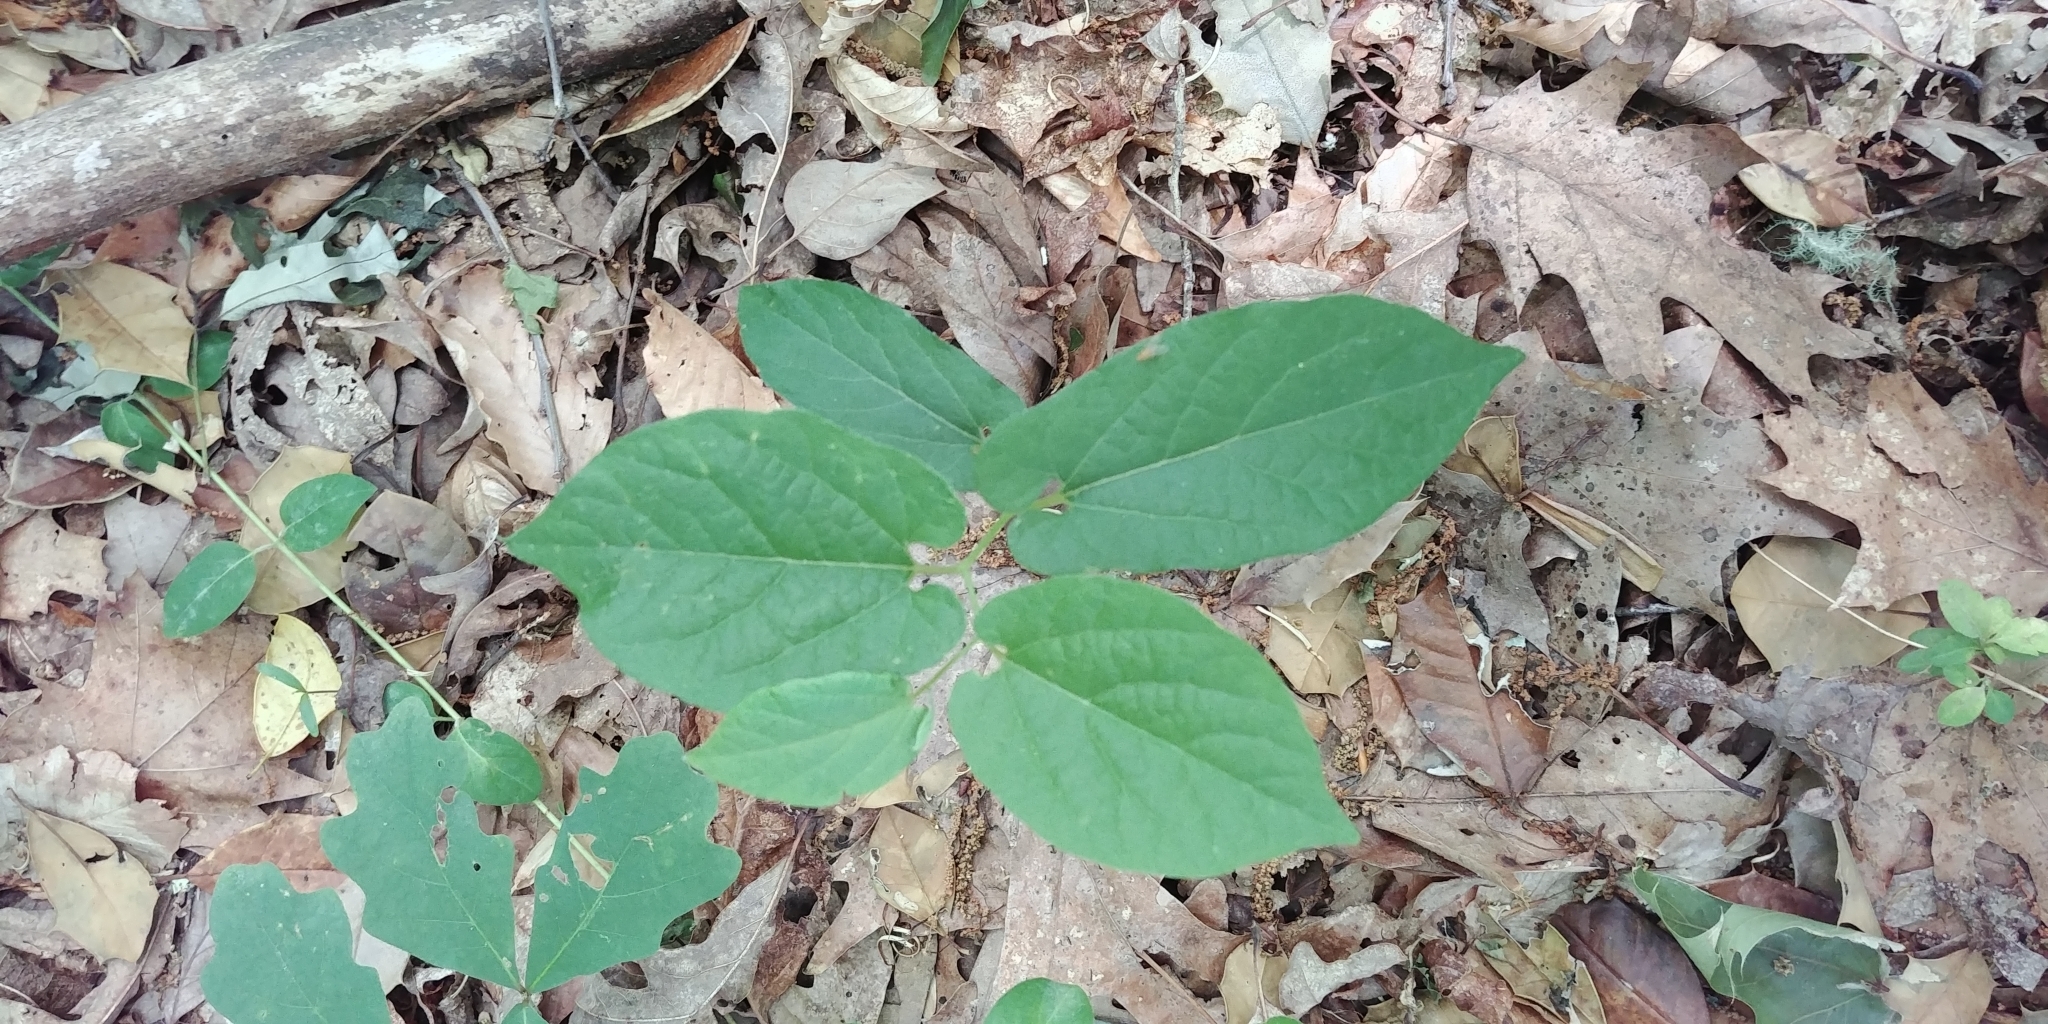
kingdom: Plantae
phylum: Tracheophyta
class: Magnoliopsida
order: Piperales
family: Aristolochiaceae
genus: Endodeca
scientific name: Endodeca serpentaria
